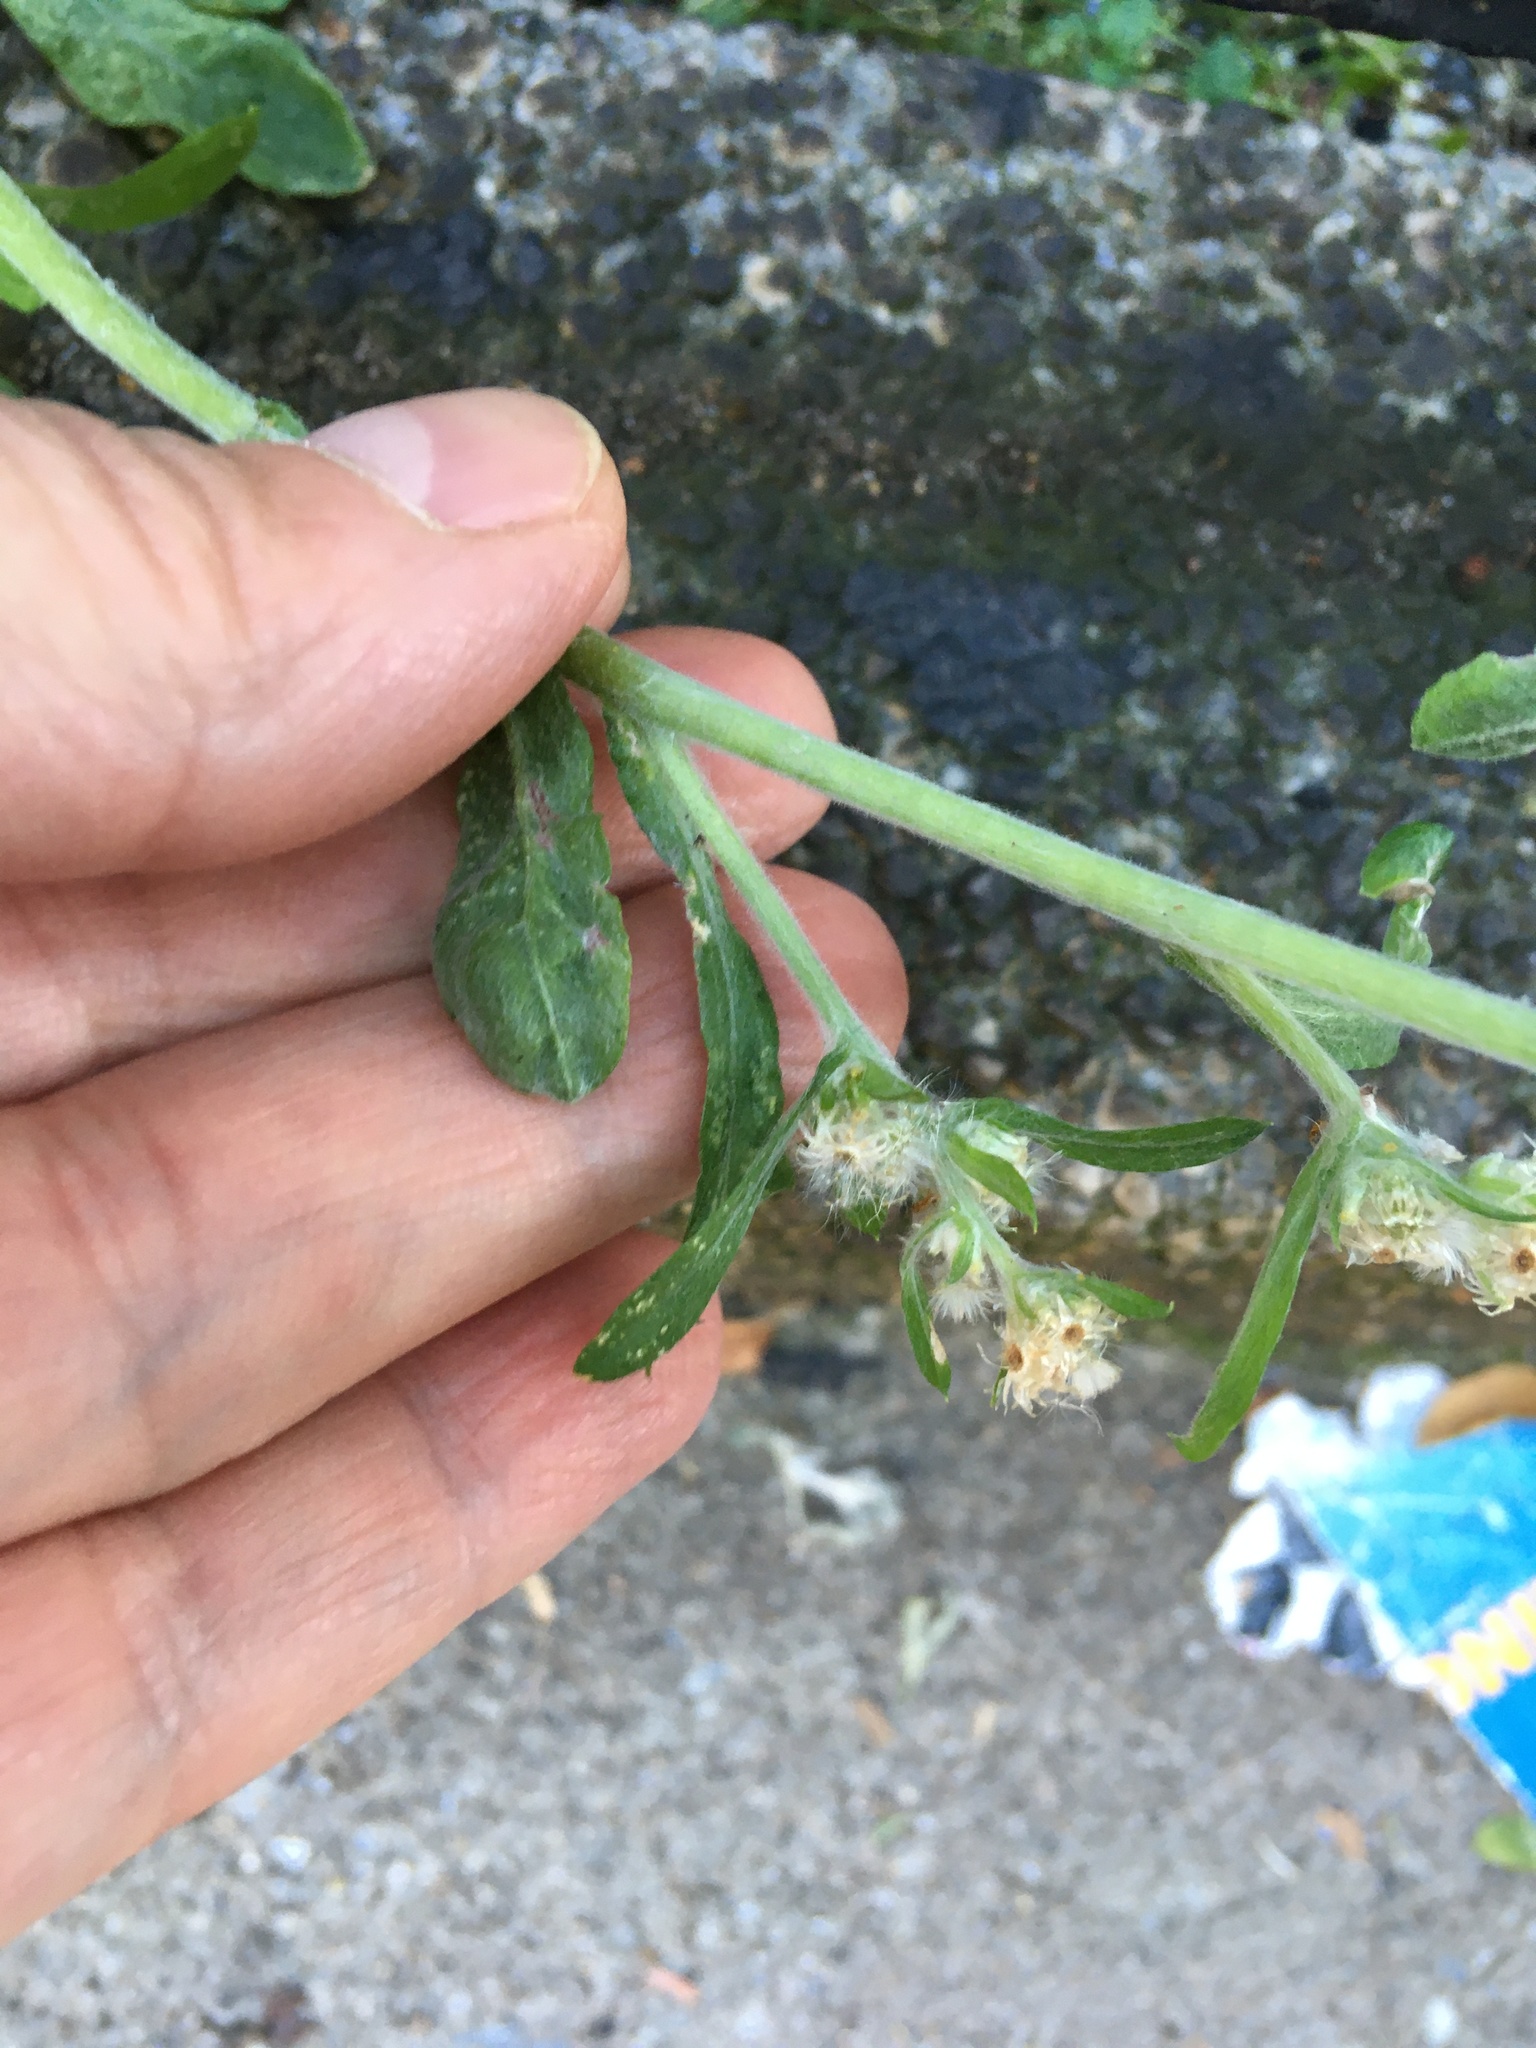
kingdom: Plantae
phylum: Tracheophyta
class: Magnoliopsida
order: Asterales
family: Asteraceae
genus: Gamochaeta
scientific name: Gamochaeta pensylvanica
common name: Pennsylvania everlasting
